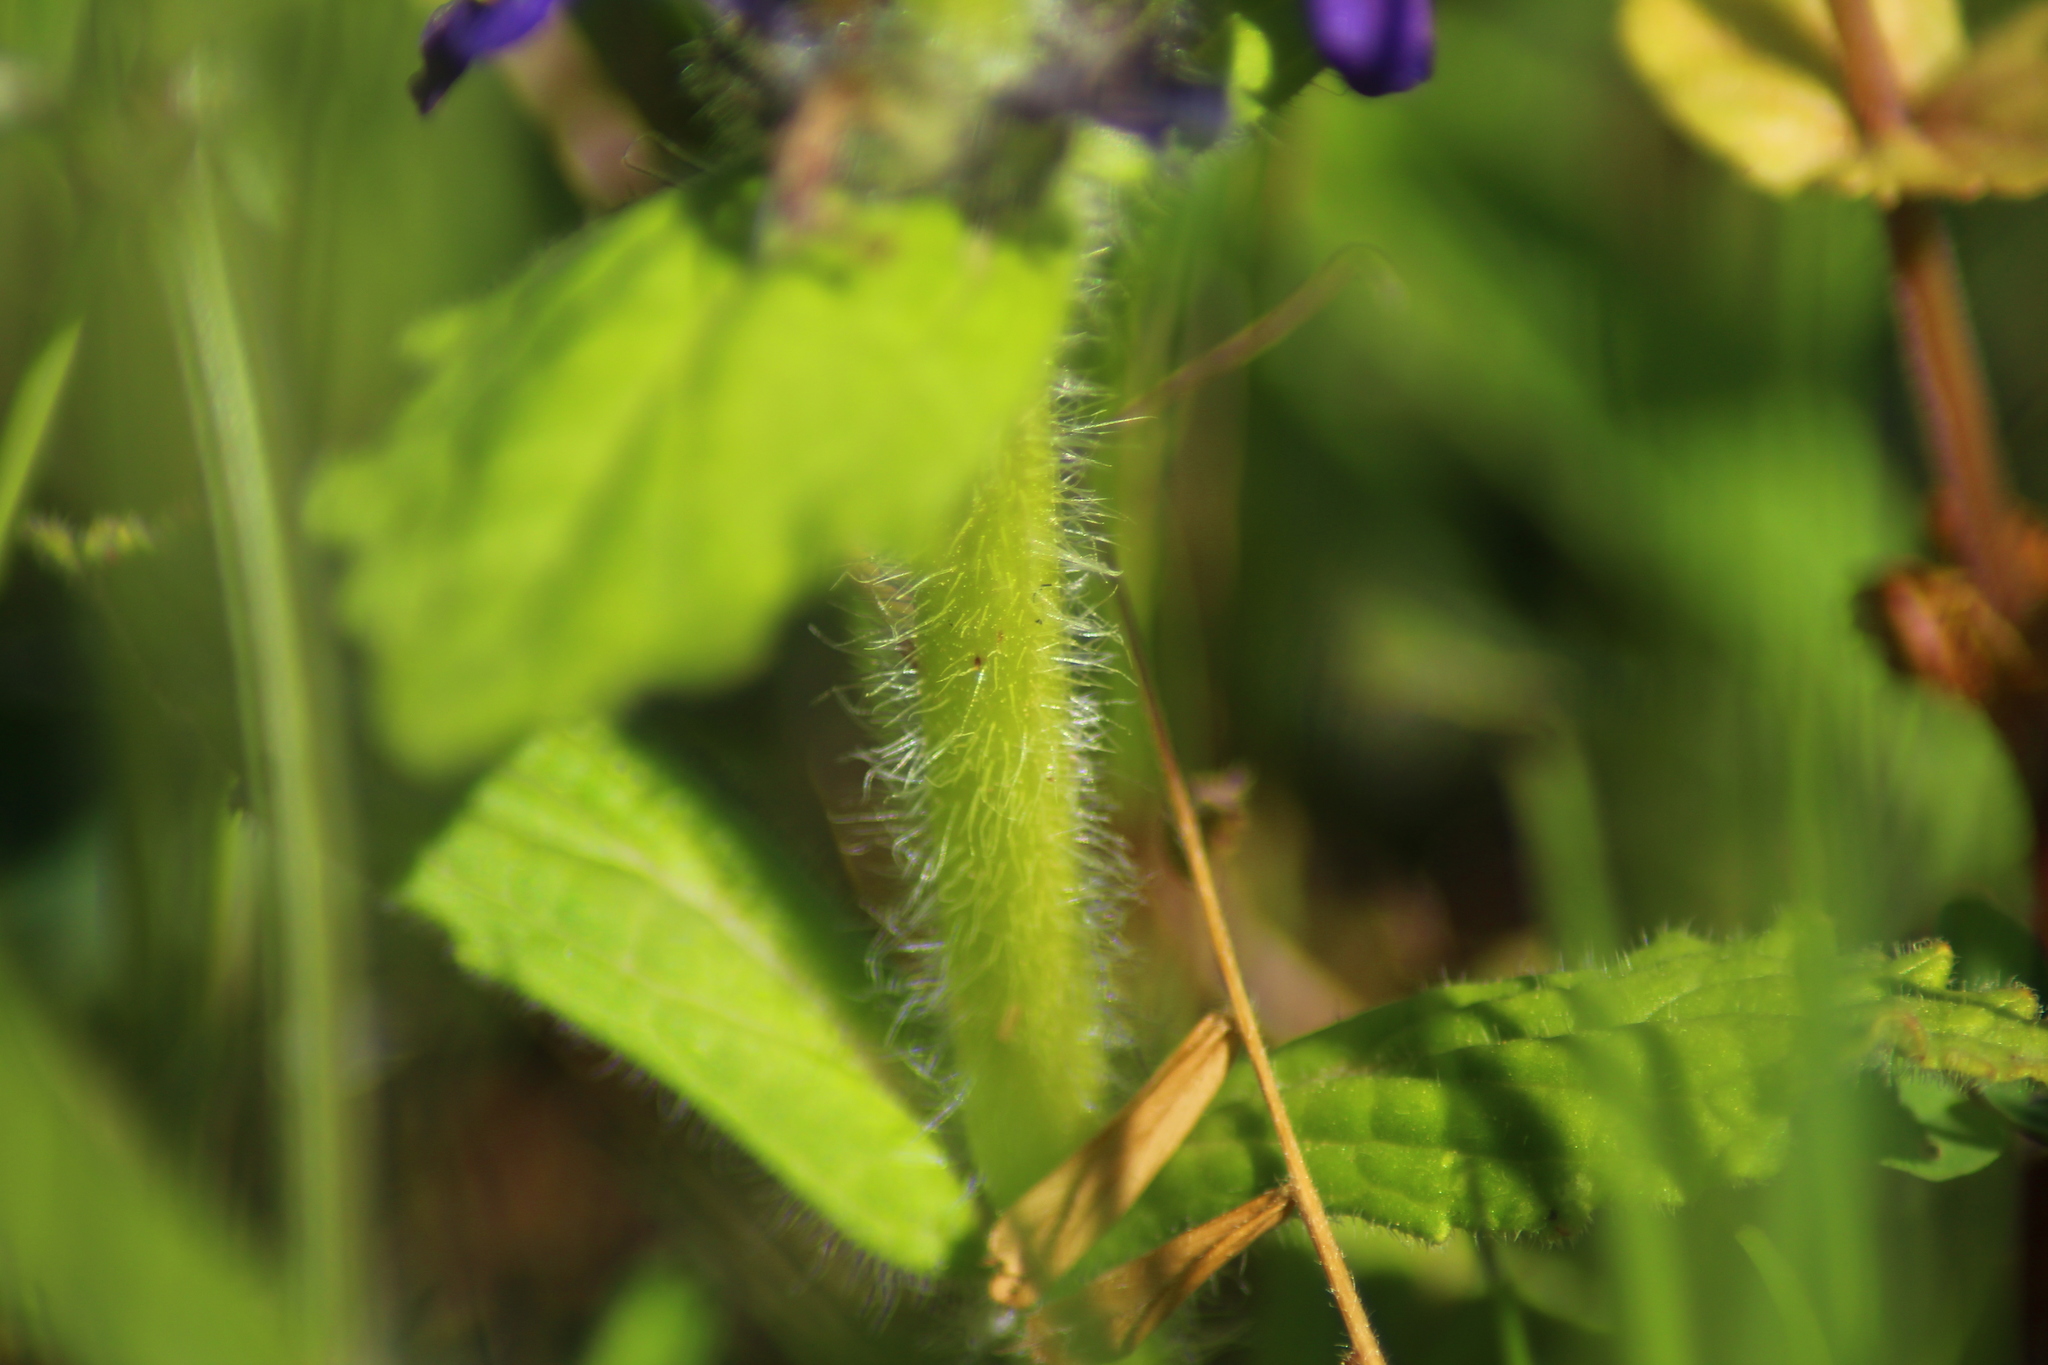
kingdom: Plantae
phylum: Tracheophyta
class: Magnoliopsida
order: Lamiales
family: Lamiaceae
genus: Ajuga
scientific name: Ajuga genevensis
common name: Blue bugle
